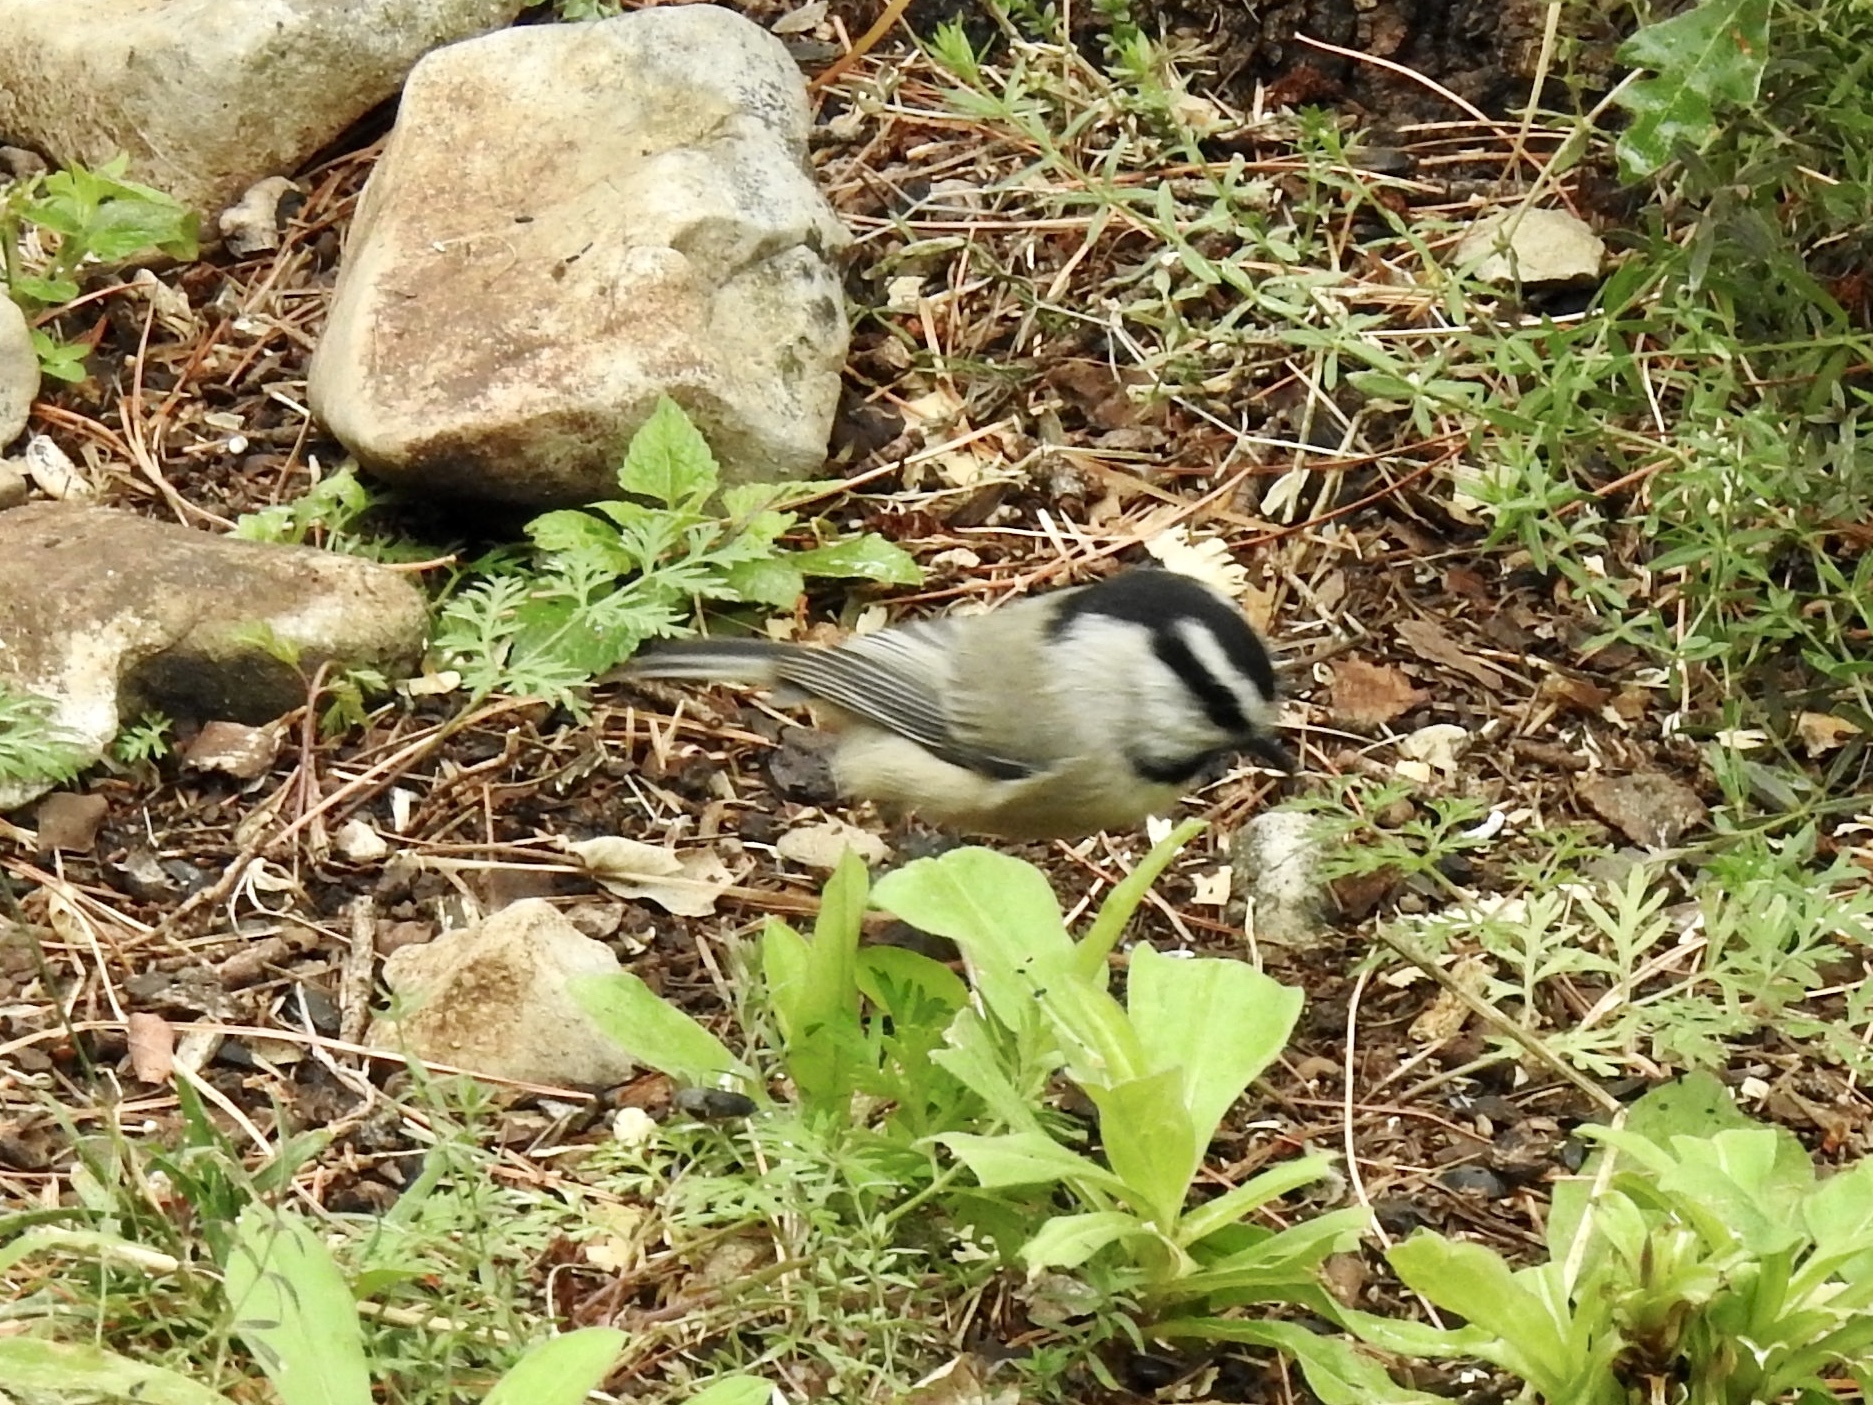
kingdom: Animalia
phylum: Chordata
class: Aves
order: Passeriformes
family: Paridae
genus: Poecile
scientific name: Poecile gambeli
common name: Mountain chickadee
